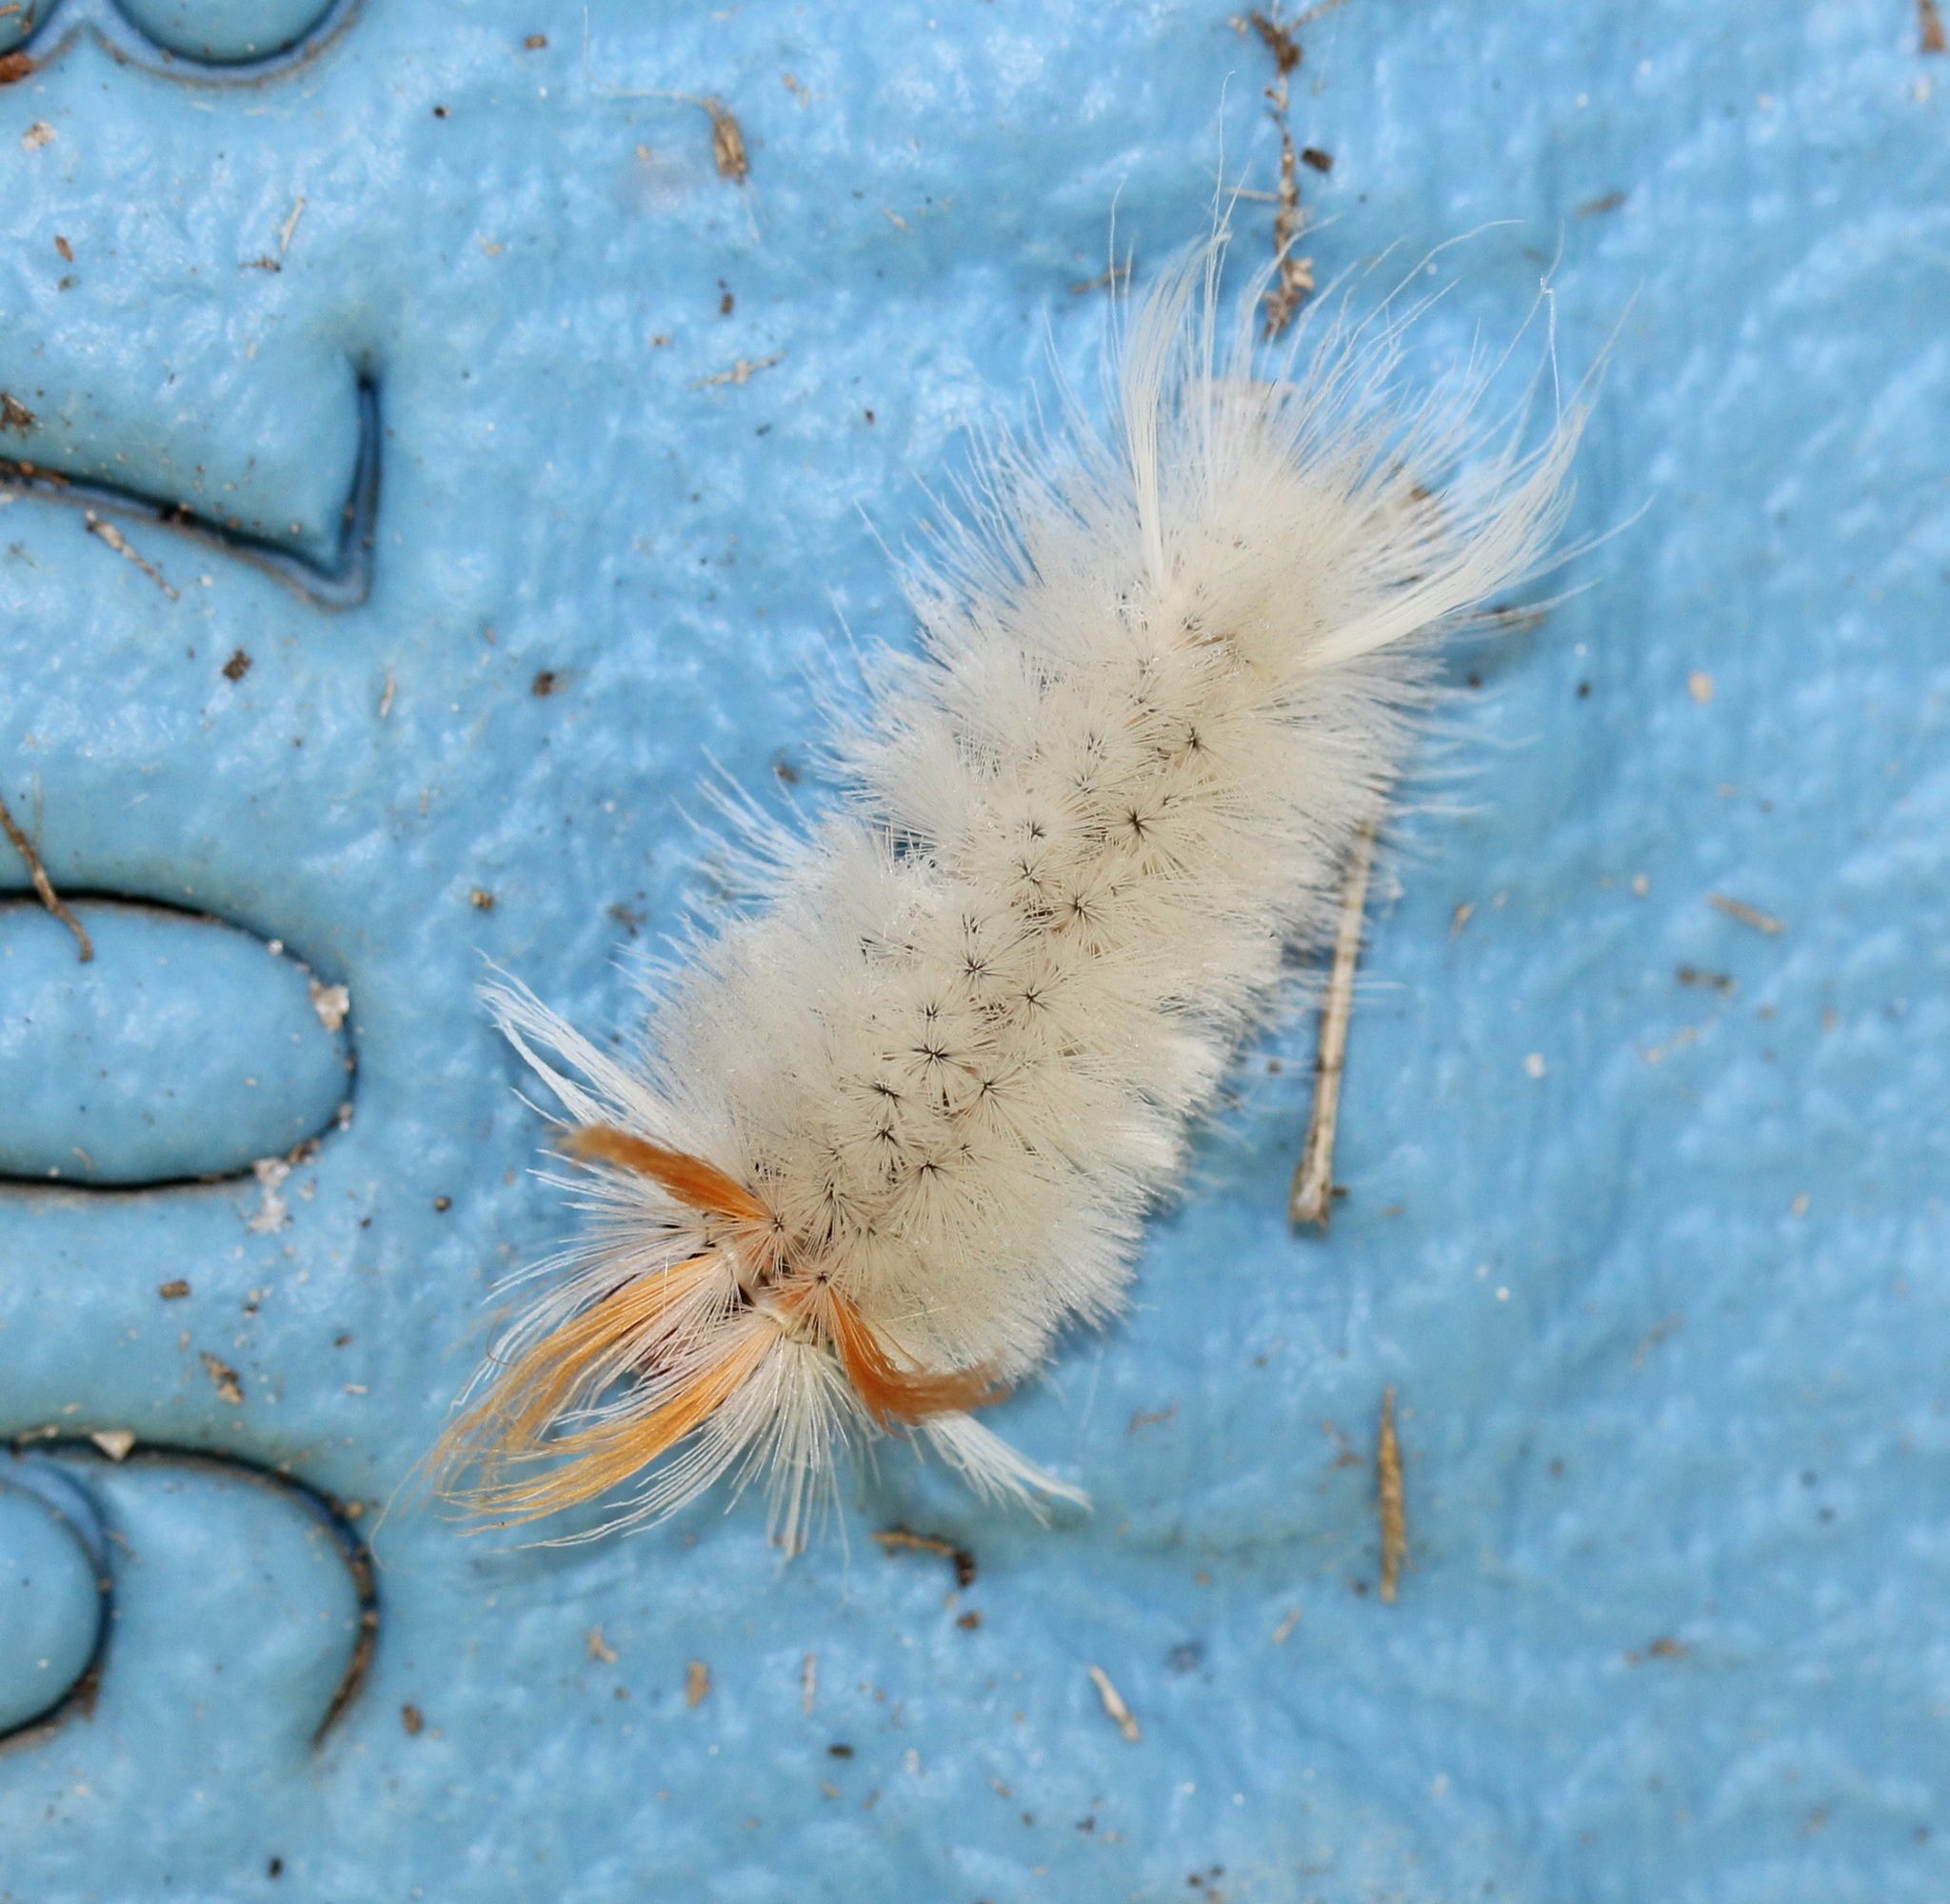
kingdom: Animalia
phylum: Arthropoda
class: Insecta
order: Lepidoptera
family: Erebidae
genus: Halysidota
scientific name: Halysidota harrisii
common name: Sycamore tussock moth
